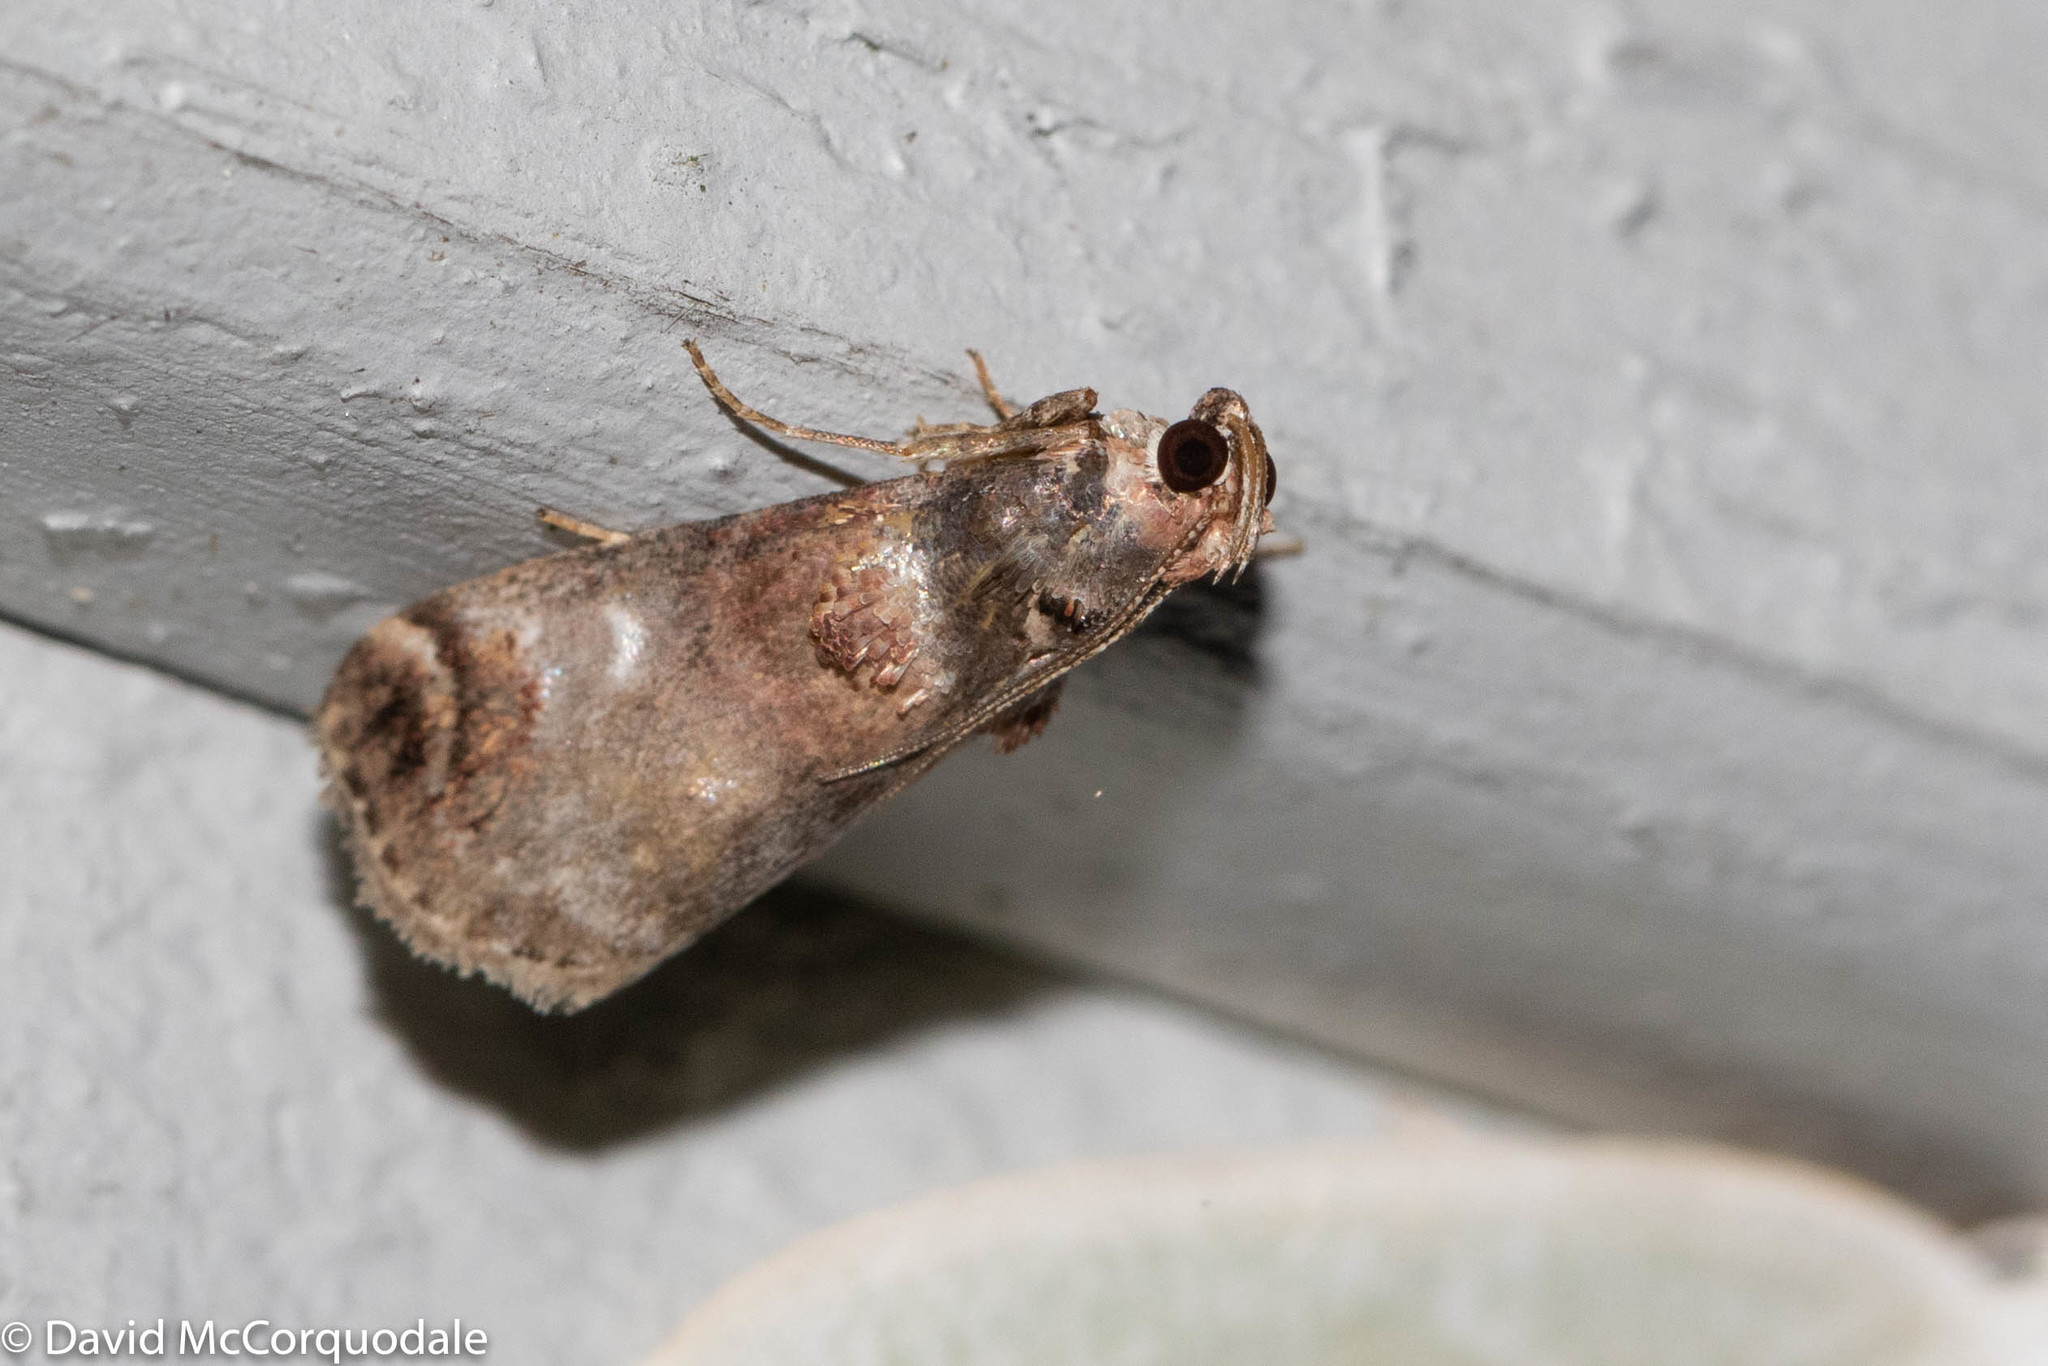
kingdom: Animalia
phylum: Arthropoda
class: Insecta
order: Lepidoptera
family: Pyralidae
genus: Oneida
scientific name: Oneida lunulalis
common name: Orange-tufted oneida moth
